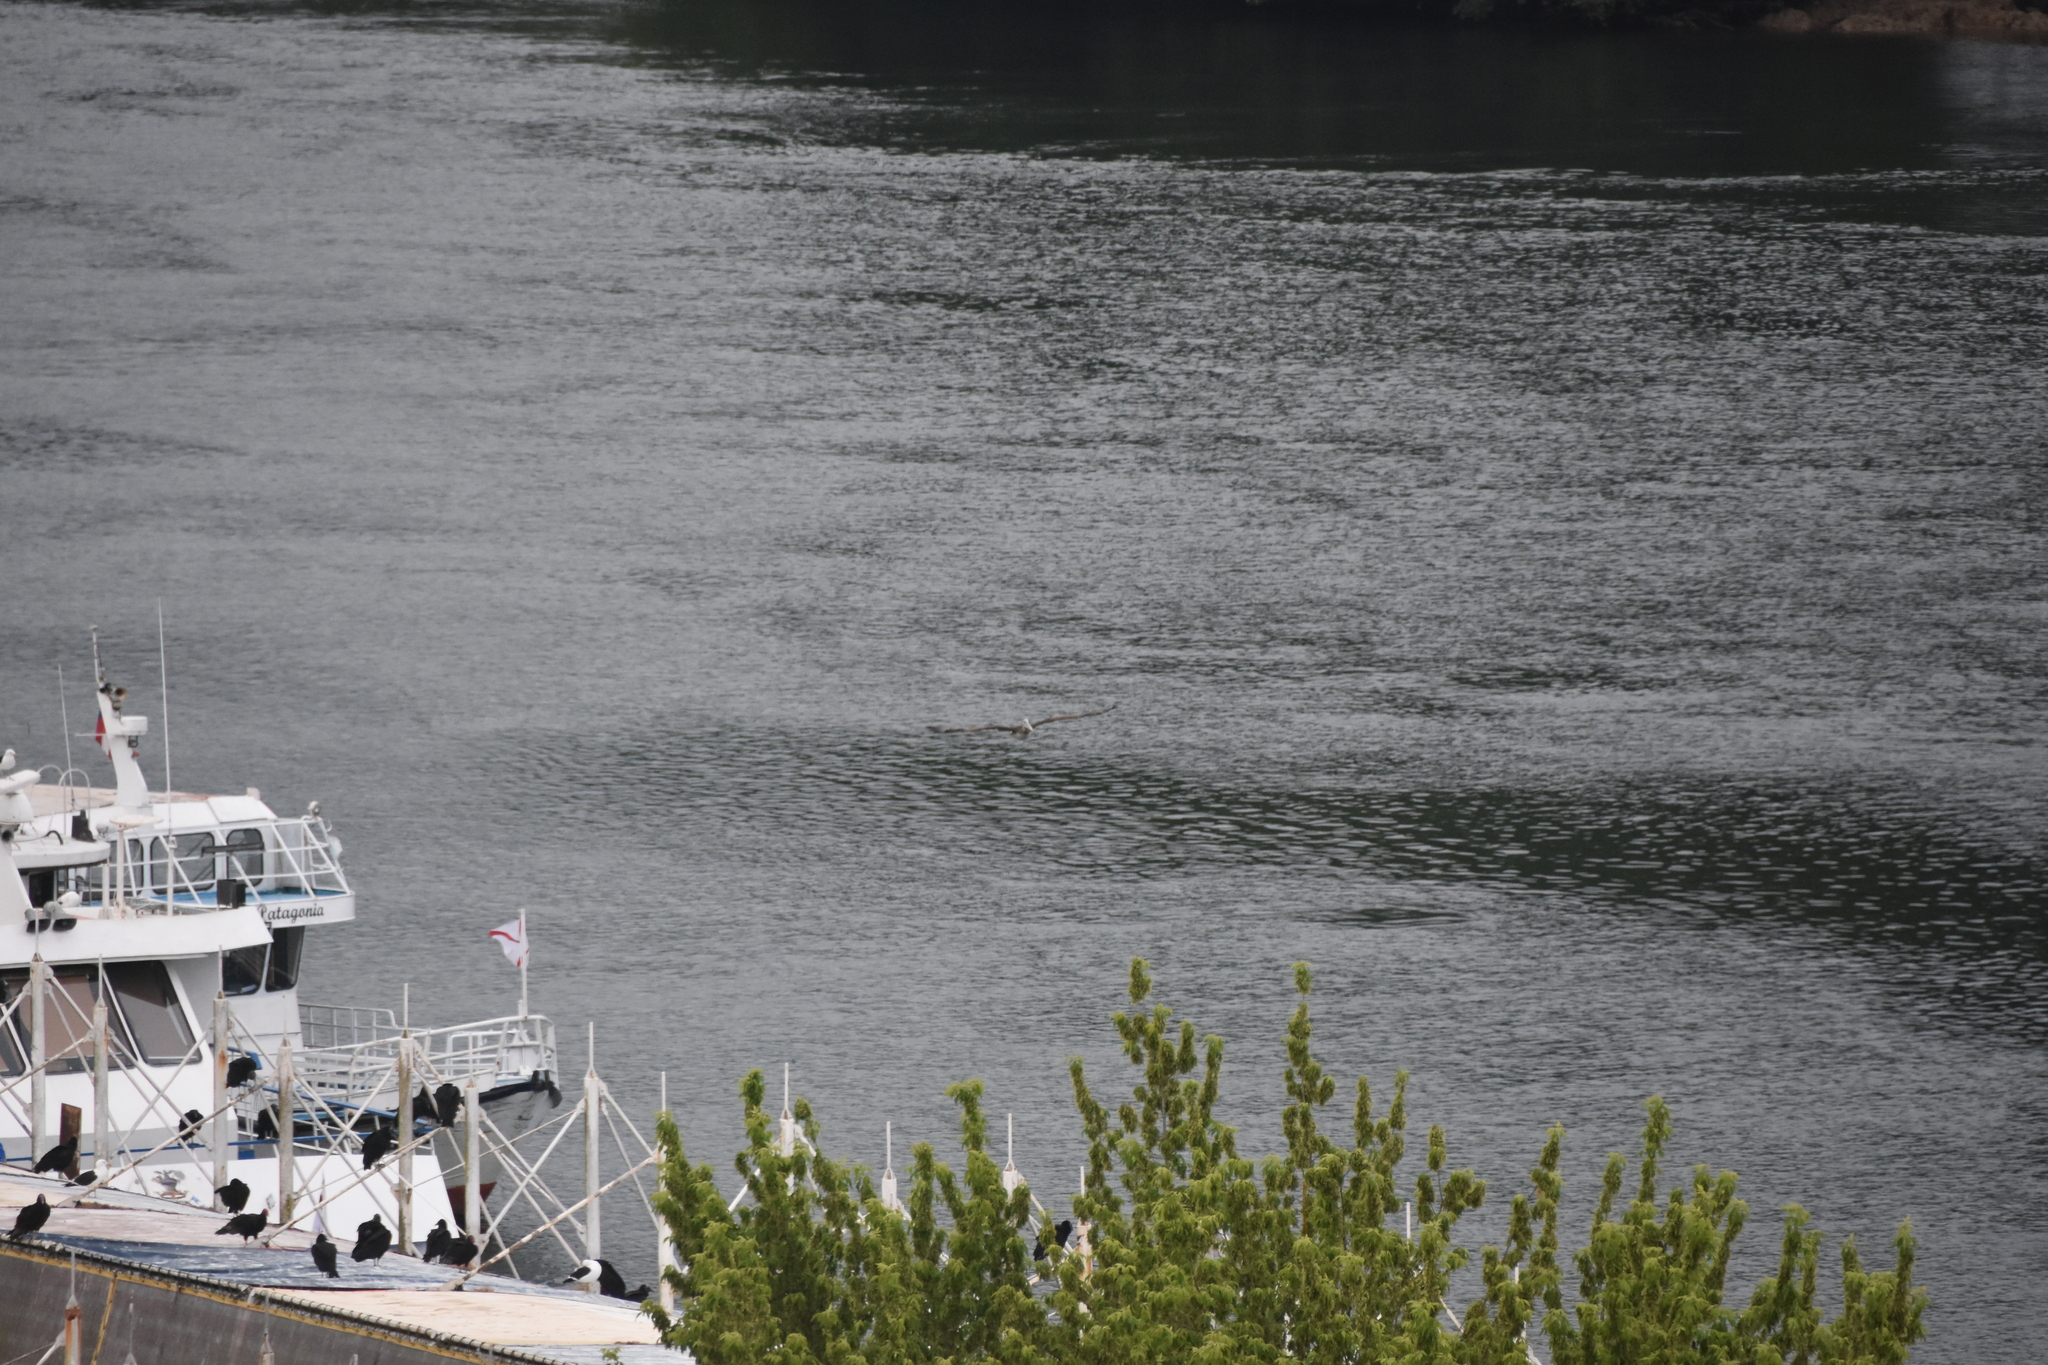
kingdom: Animalia
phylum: Chordata
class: Aves
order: Pelecaniformes
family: Pelecanidae
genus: Pelecanus
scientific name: Pelecanus thagus
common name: Peruvian pelican
